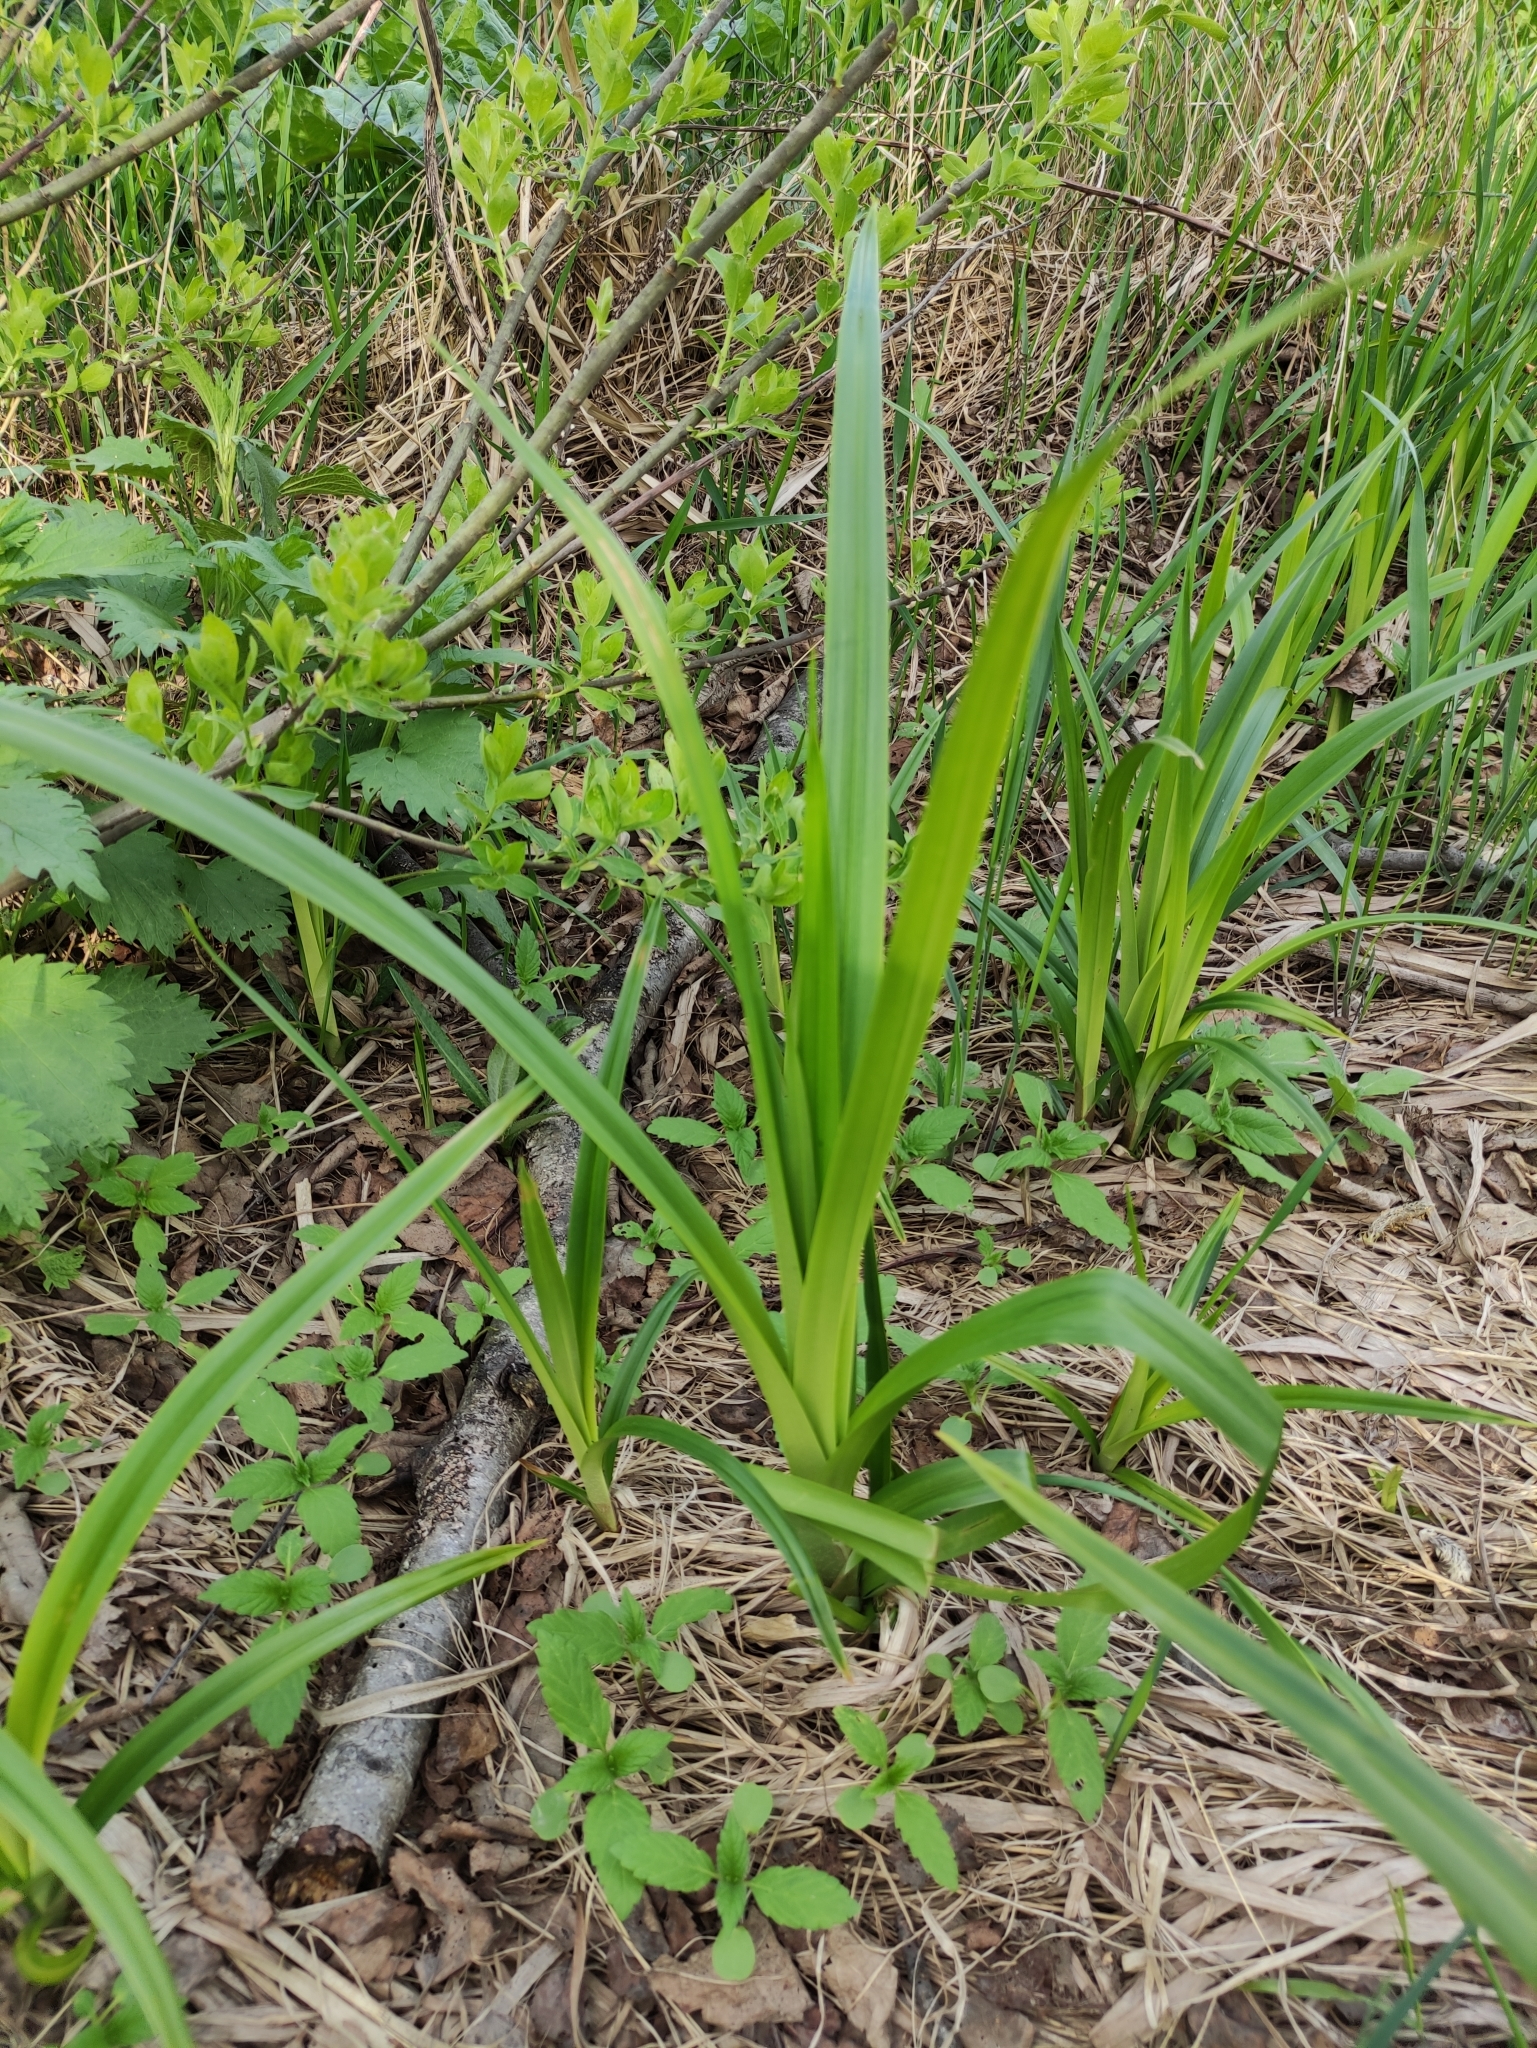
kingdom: Plantae
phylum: Tracheophyta
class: Liliopsida
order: Poales
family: Cyperaceae
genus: Scirpus
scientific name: Scirpus sylvaticus
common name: Wood club-rush
